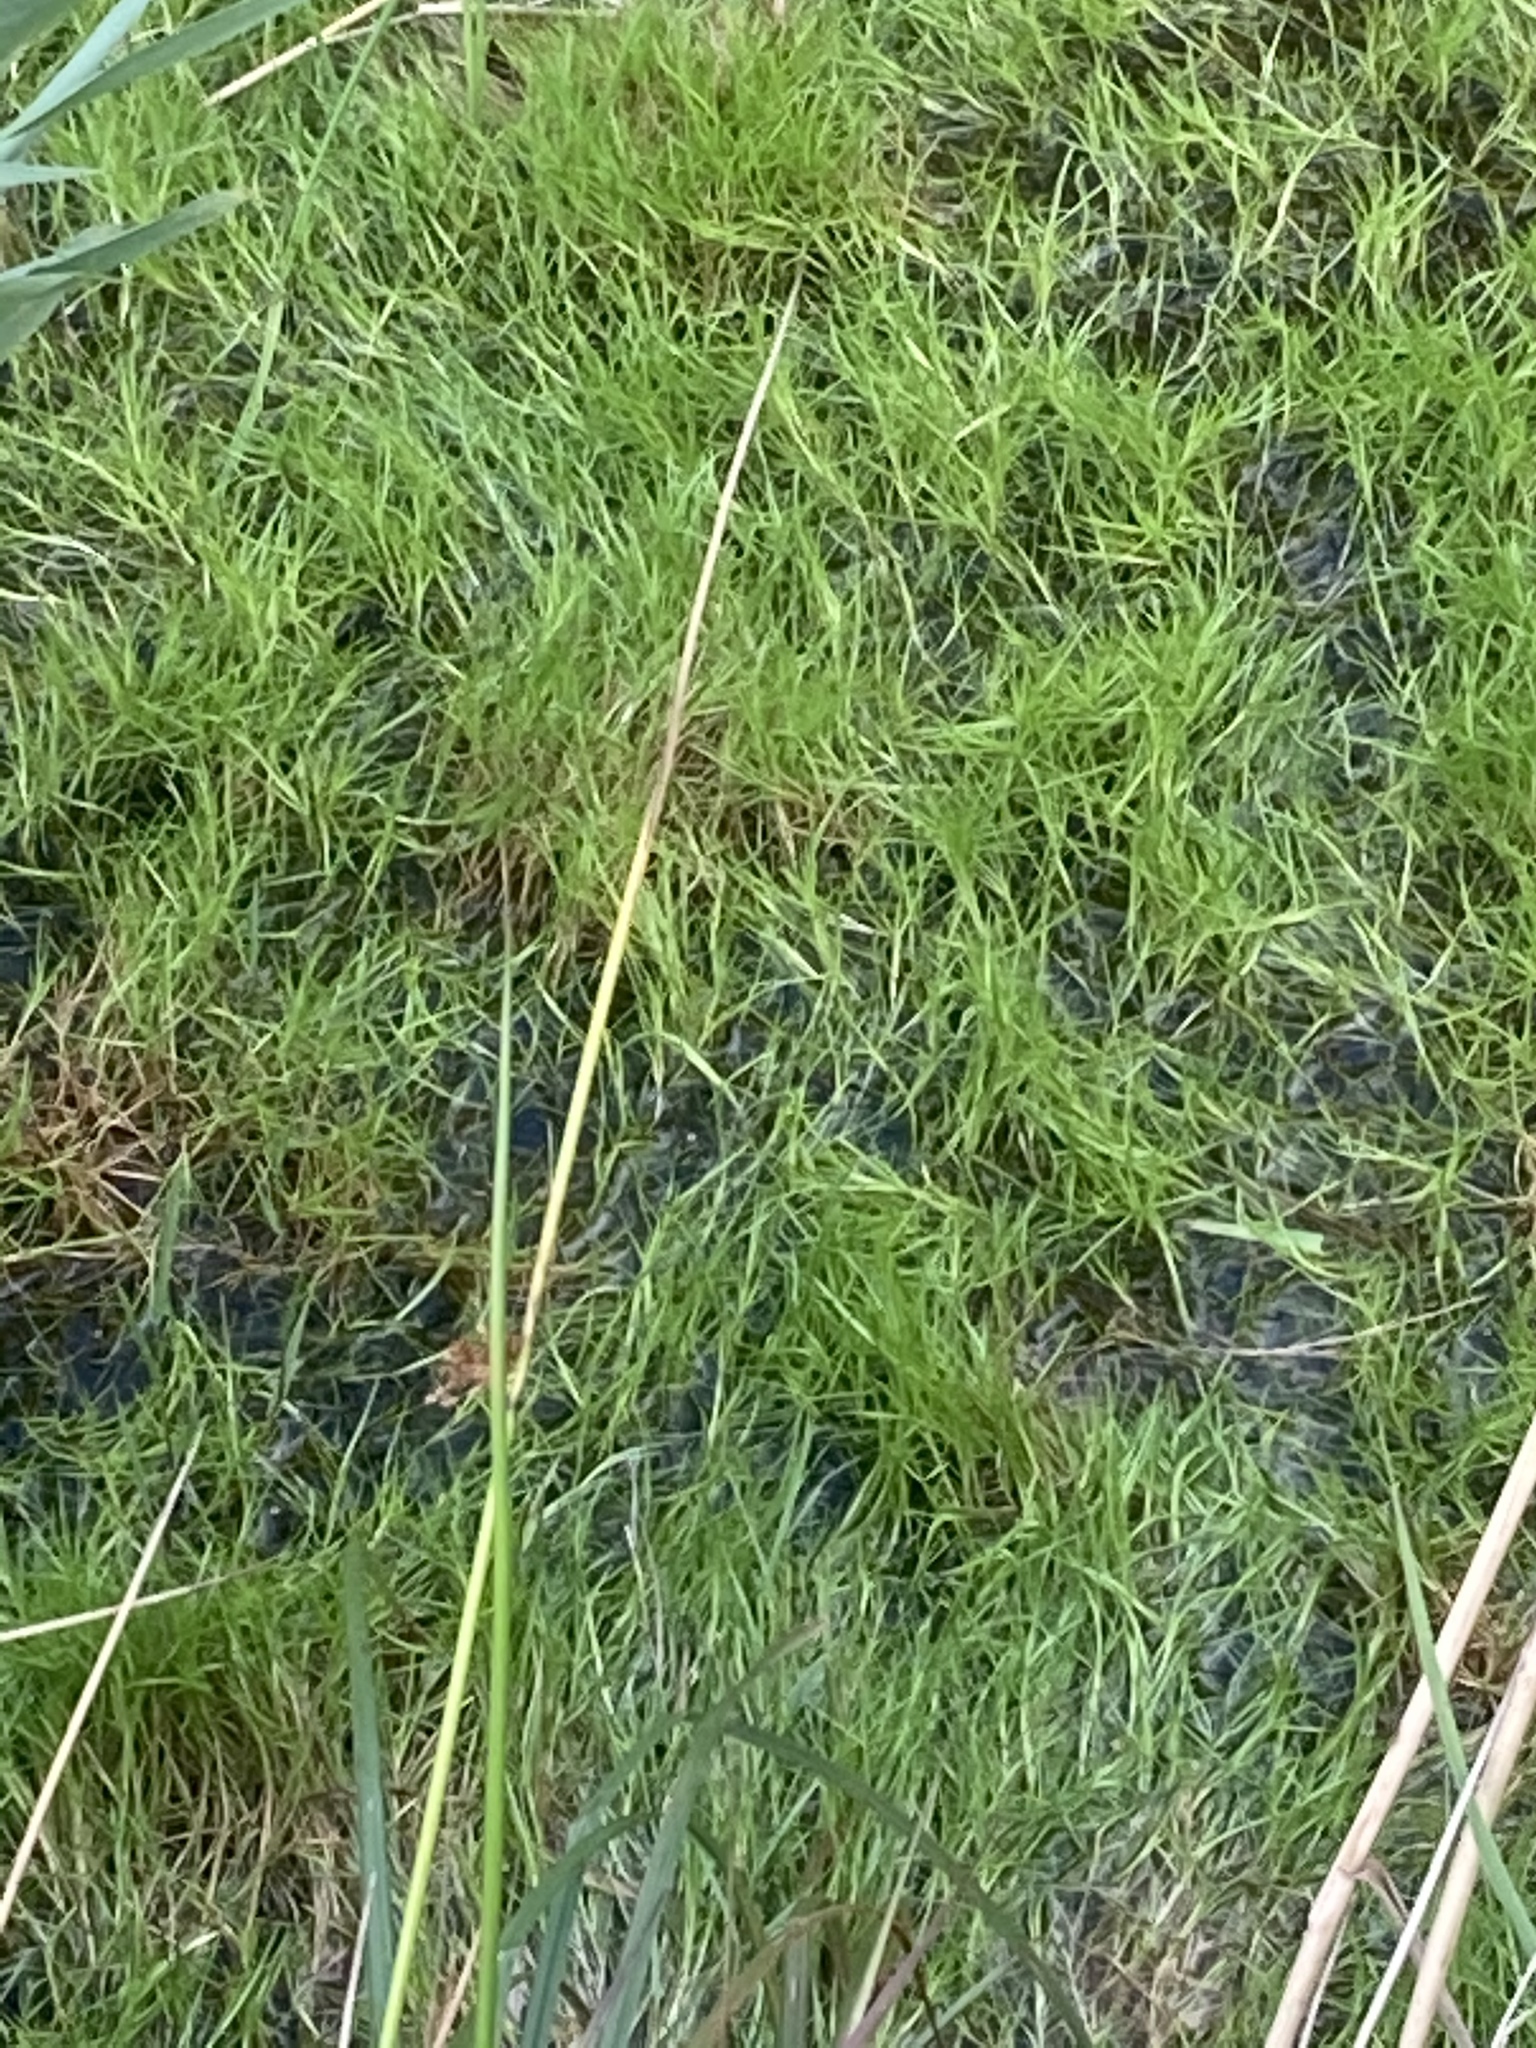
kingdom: Plantae
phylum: Tracheophyta
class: Liliopsida
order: Poales
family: Cyperaceae
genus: Isolepis
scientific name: Isolepis fluitans
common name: Floating club-rush
